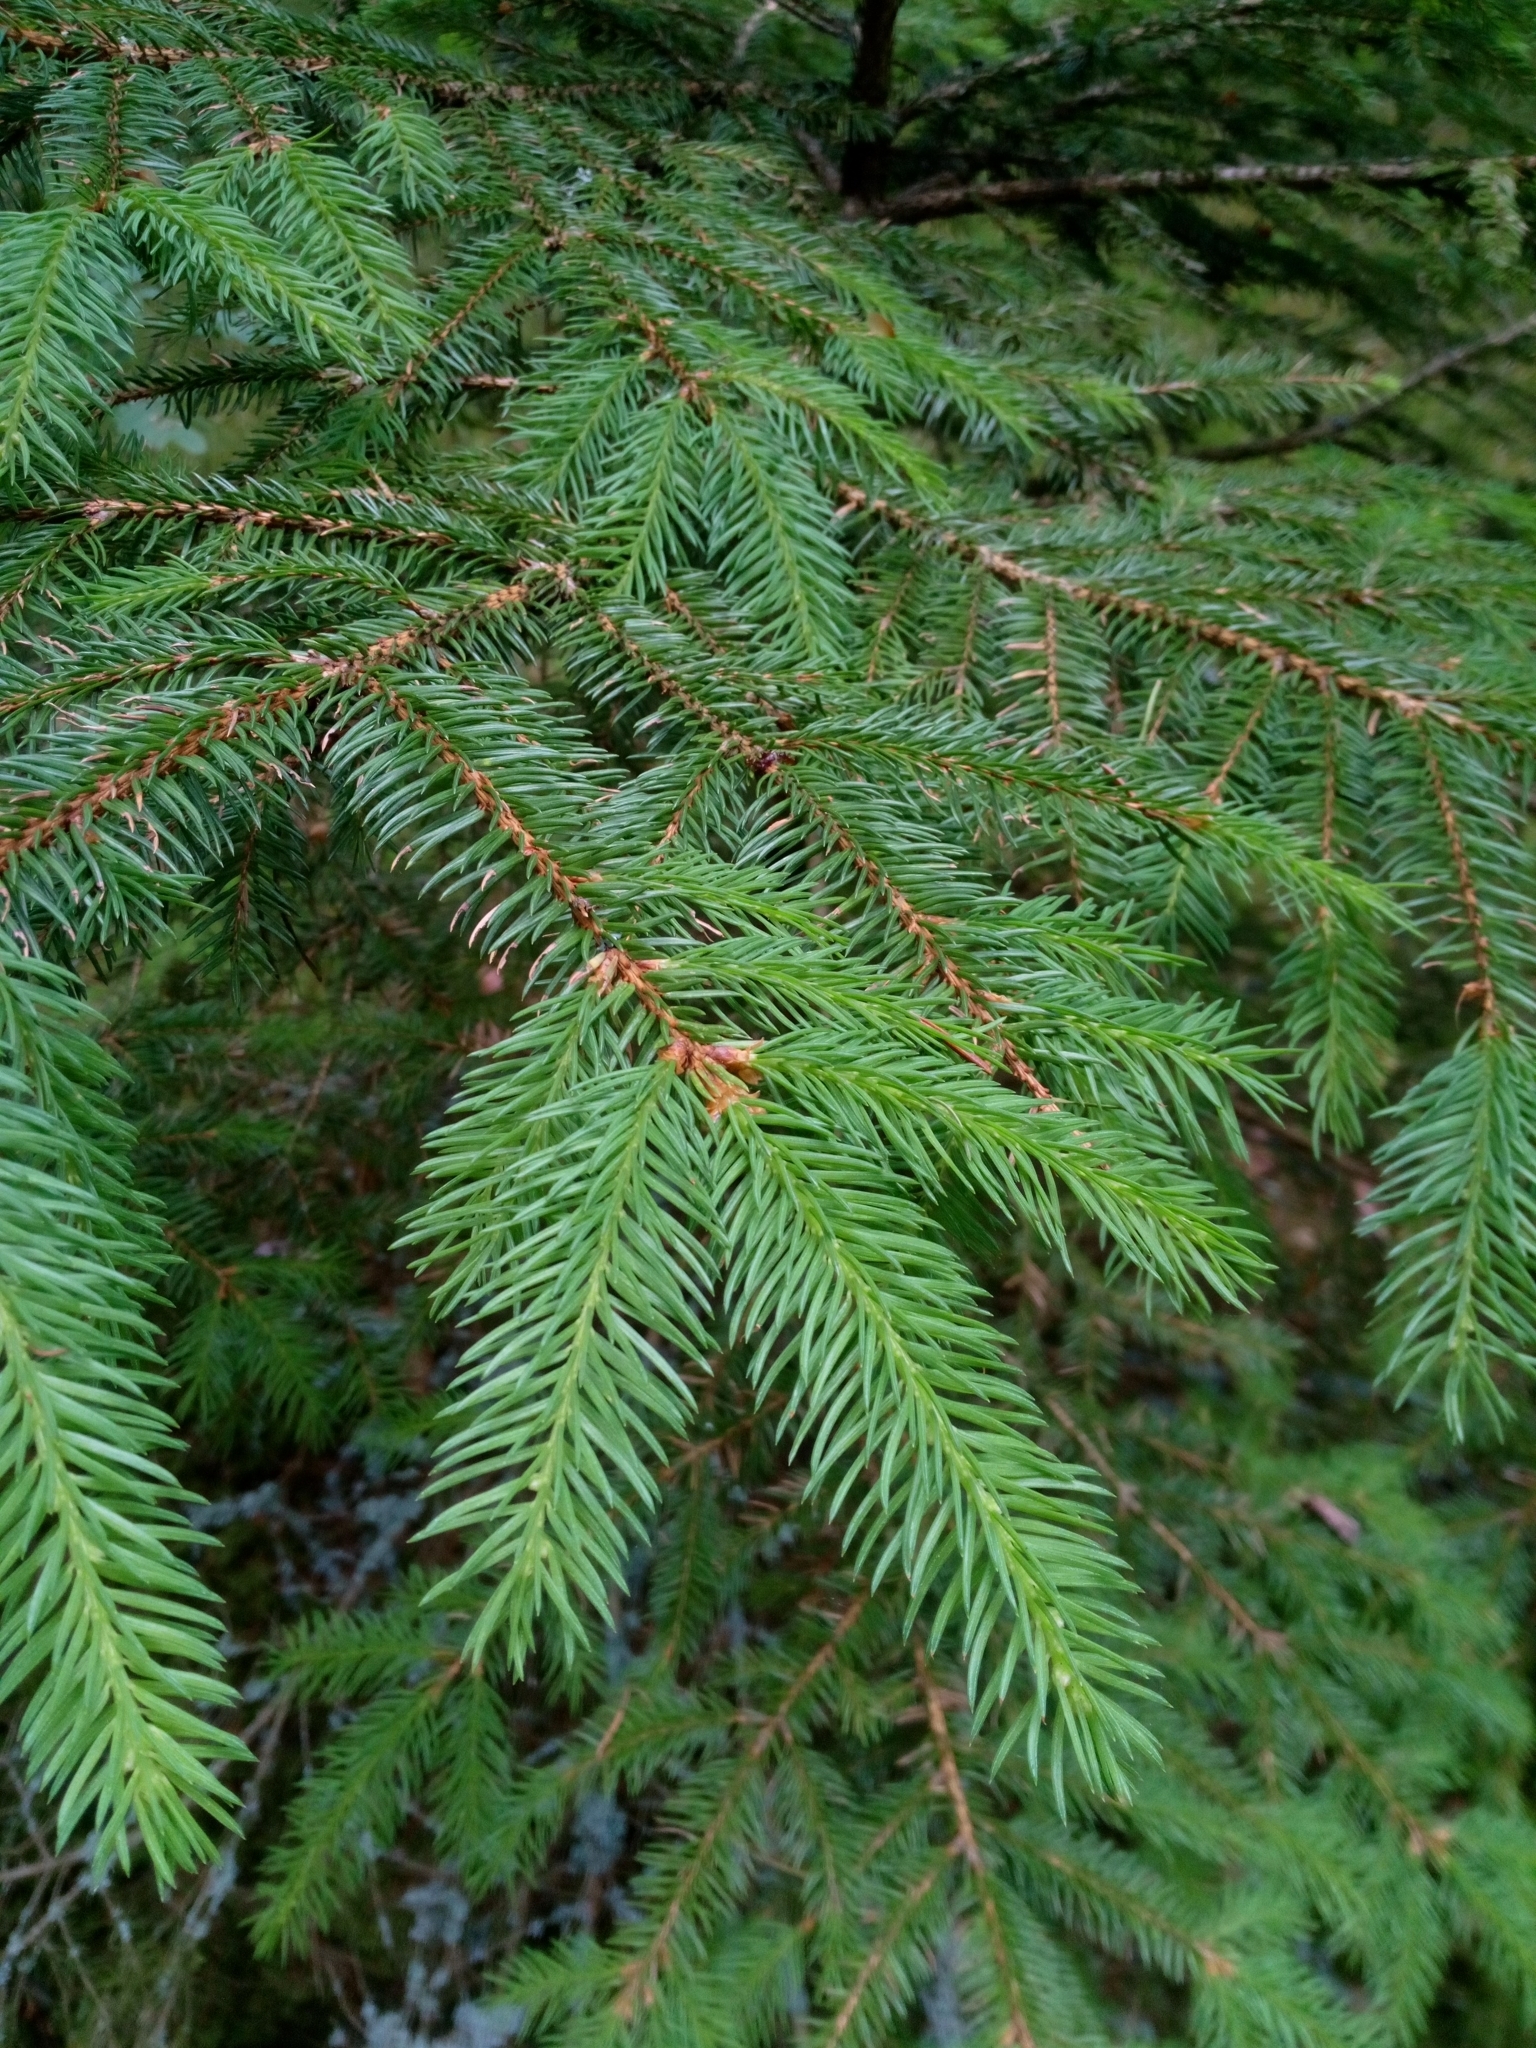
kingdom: Plantae
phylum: Tracheophyta
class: Pinopsida
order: Pinales
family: Pinaceae
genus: Picea
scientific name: Picea abies
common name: Norway spruce
